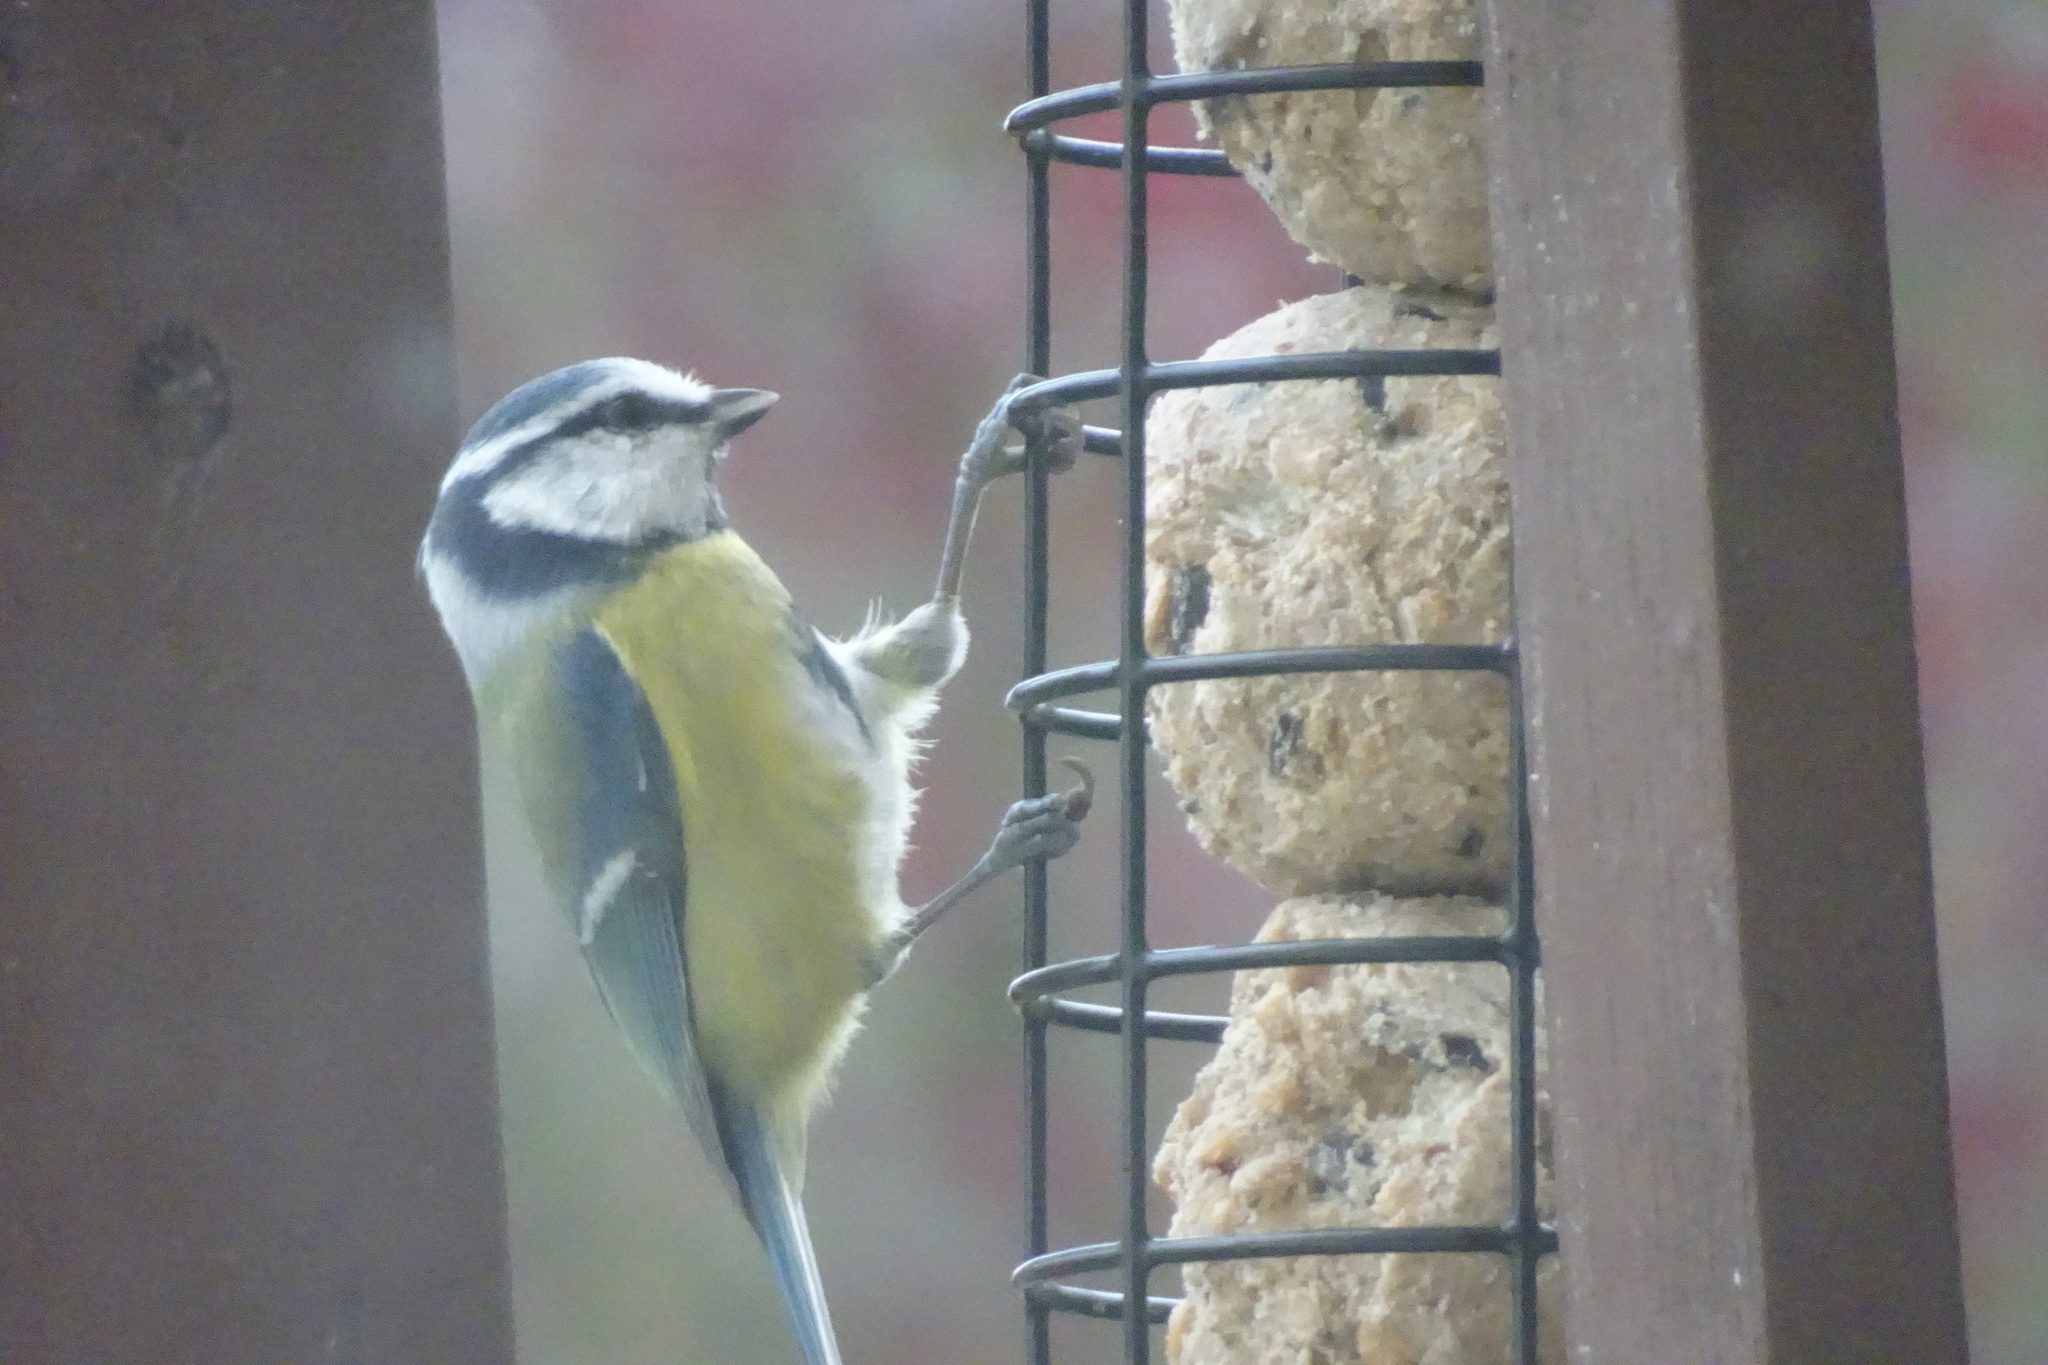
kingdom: Animalia
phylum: Chordata
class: Aves
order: Passeriformes
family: Paridae
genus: Cyanistes
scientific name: Cyanistes caeruleus
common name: Eurasian blue tit
